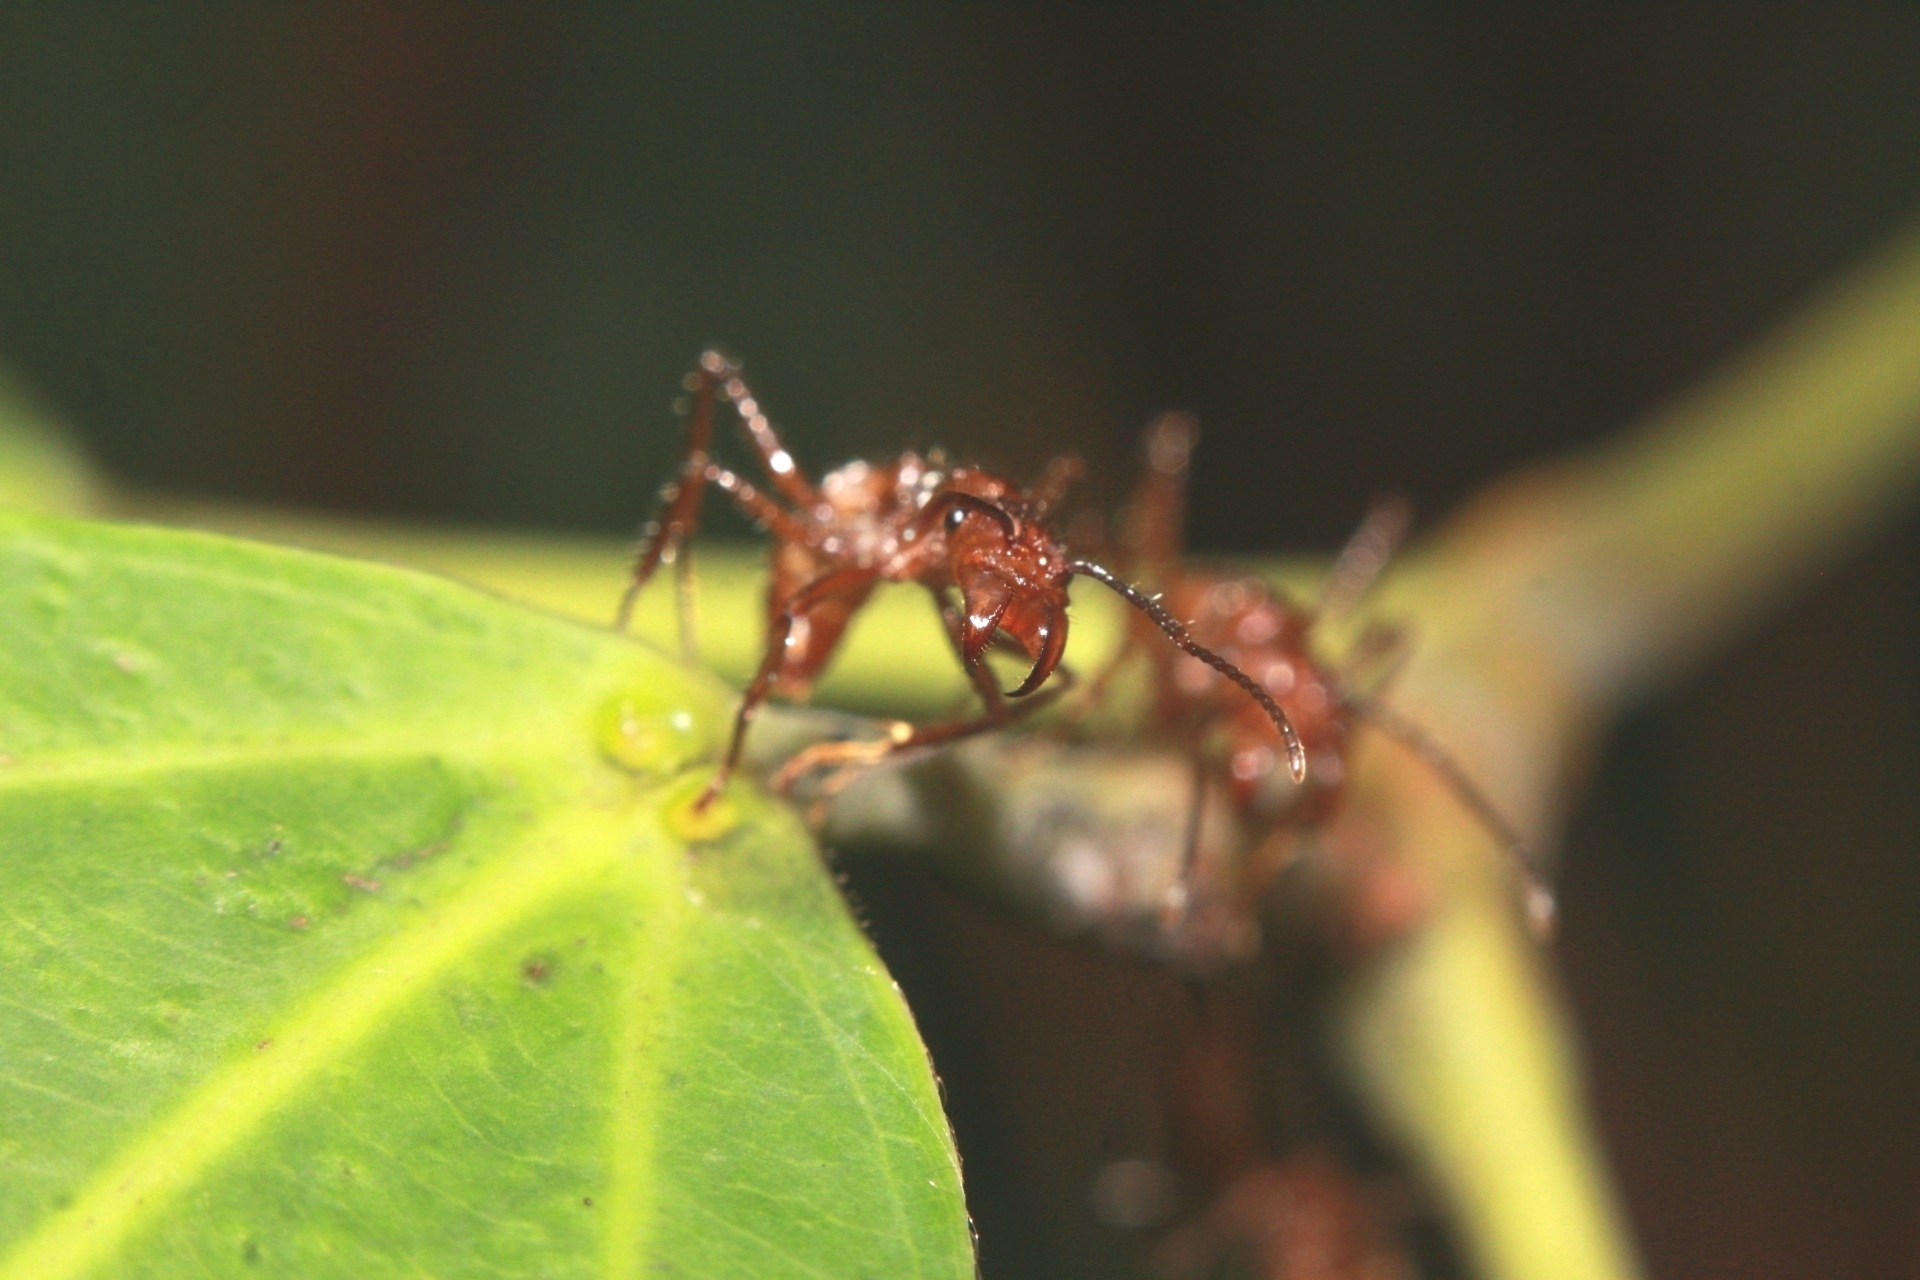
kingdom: Animalia
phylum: Arthropoda
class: Insecta
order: Hymenoptera
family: Formicidae
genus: Ectatomma
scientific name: Ectatomma tuberculatum
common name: Ant
